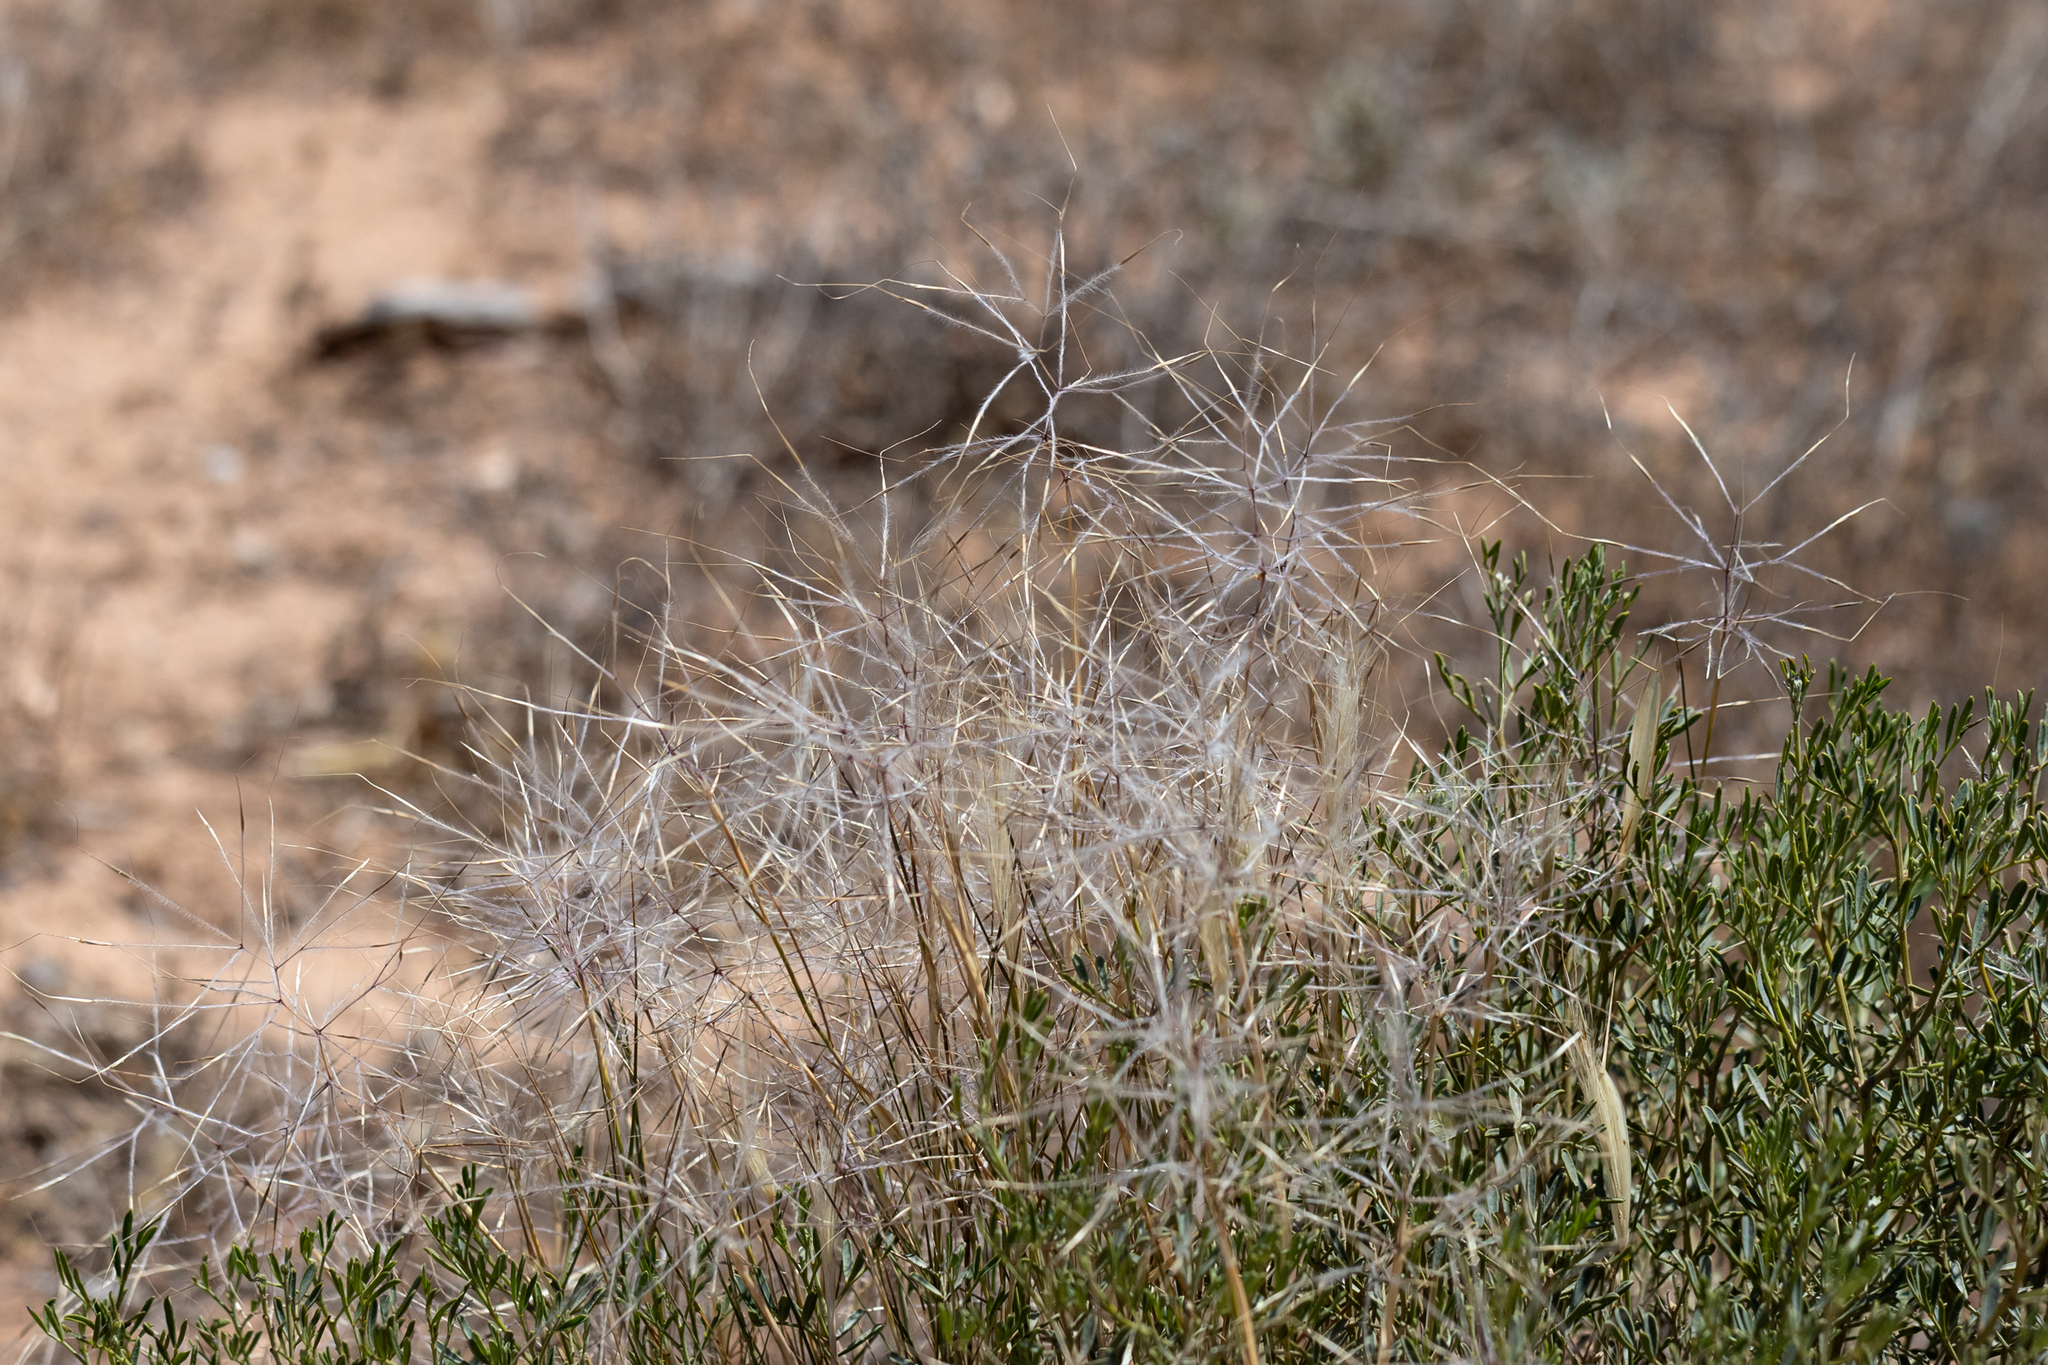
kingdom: Plantae
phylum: Tracheophyta
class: Liliopsida
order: Poales
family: Poaceae
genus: Austrostipa
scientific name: Austrostipa elegantissima
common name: Feather spear grass
